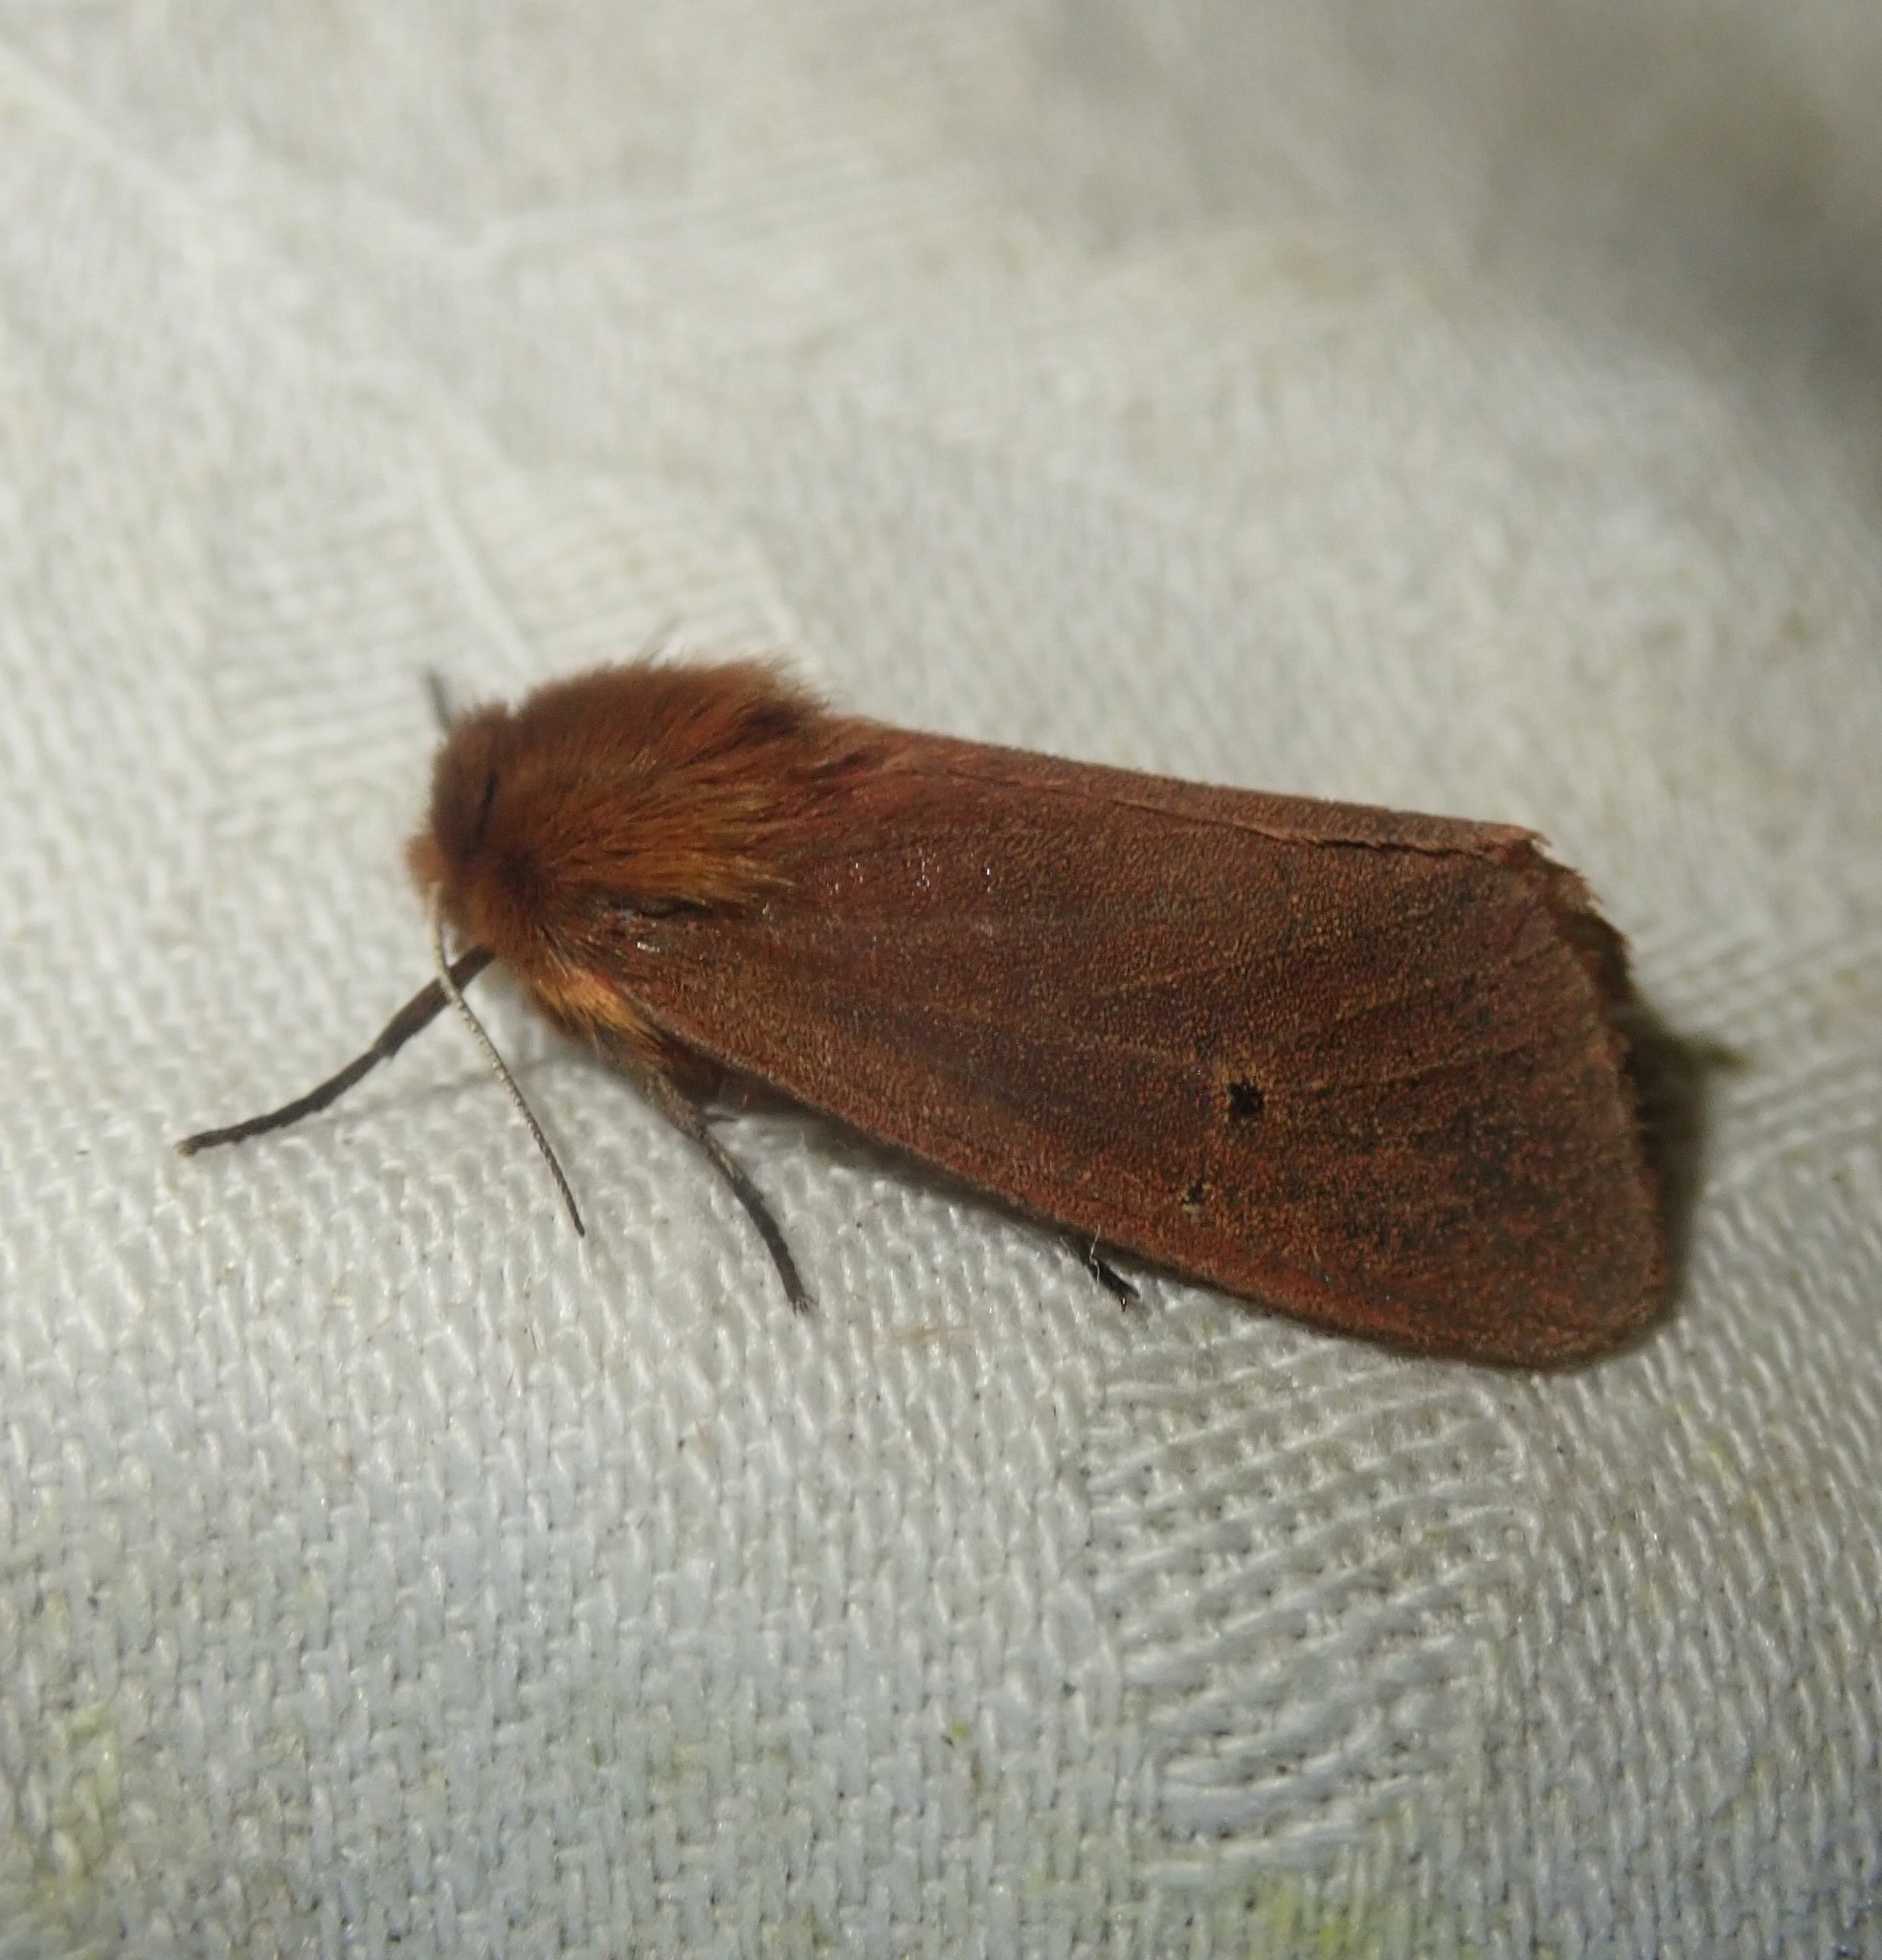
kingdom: Animalia
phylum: Arthropoda
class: Insecta
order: Lepidoptera
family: Erebidae
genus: Phragmatobia
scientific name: Phragmatobia fuliginosa
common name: Ruby tiger
